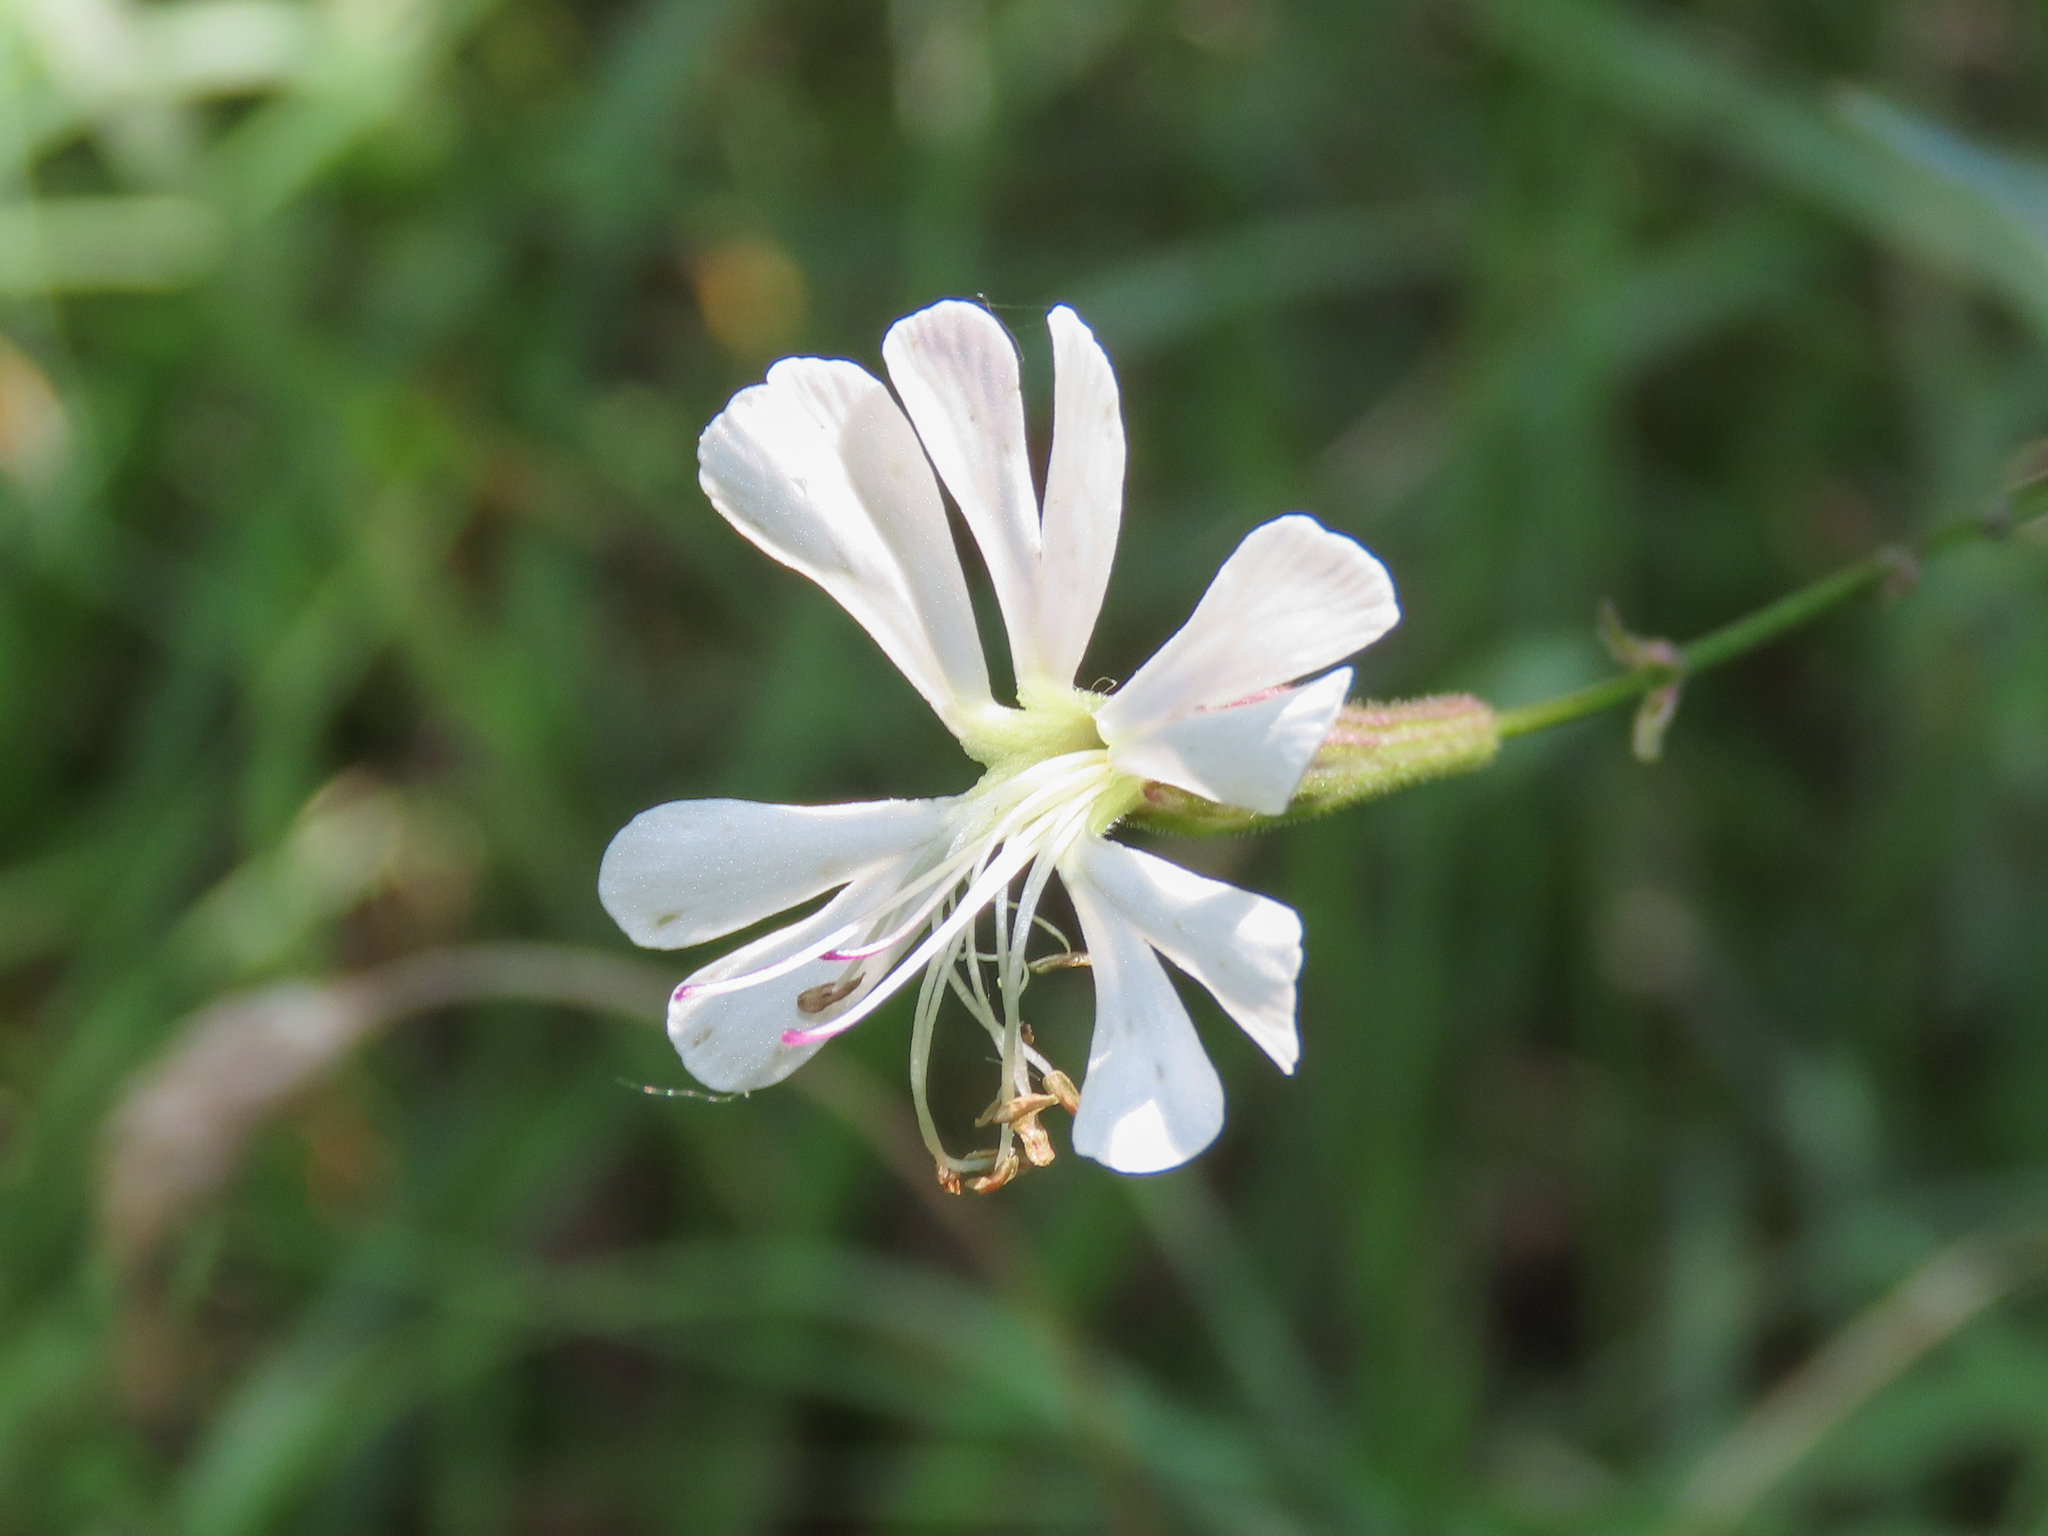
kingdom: Plantae
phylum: Tracheophyta
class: Magnoliopsida
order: Caryophyllales
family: Caryophyllaceae
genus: Silene
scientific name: Silene italica
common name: Italian catchfly
